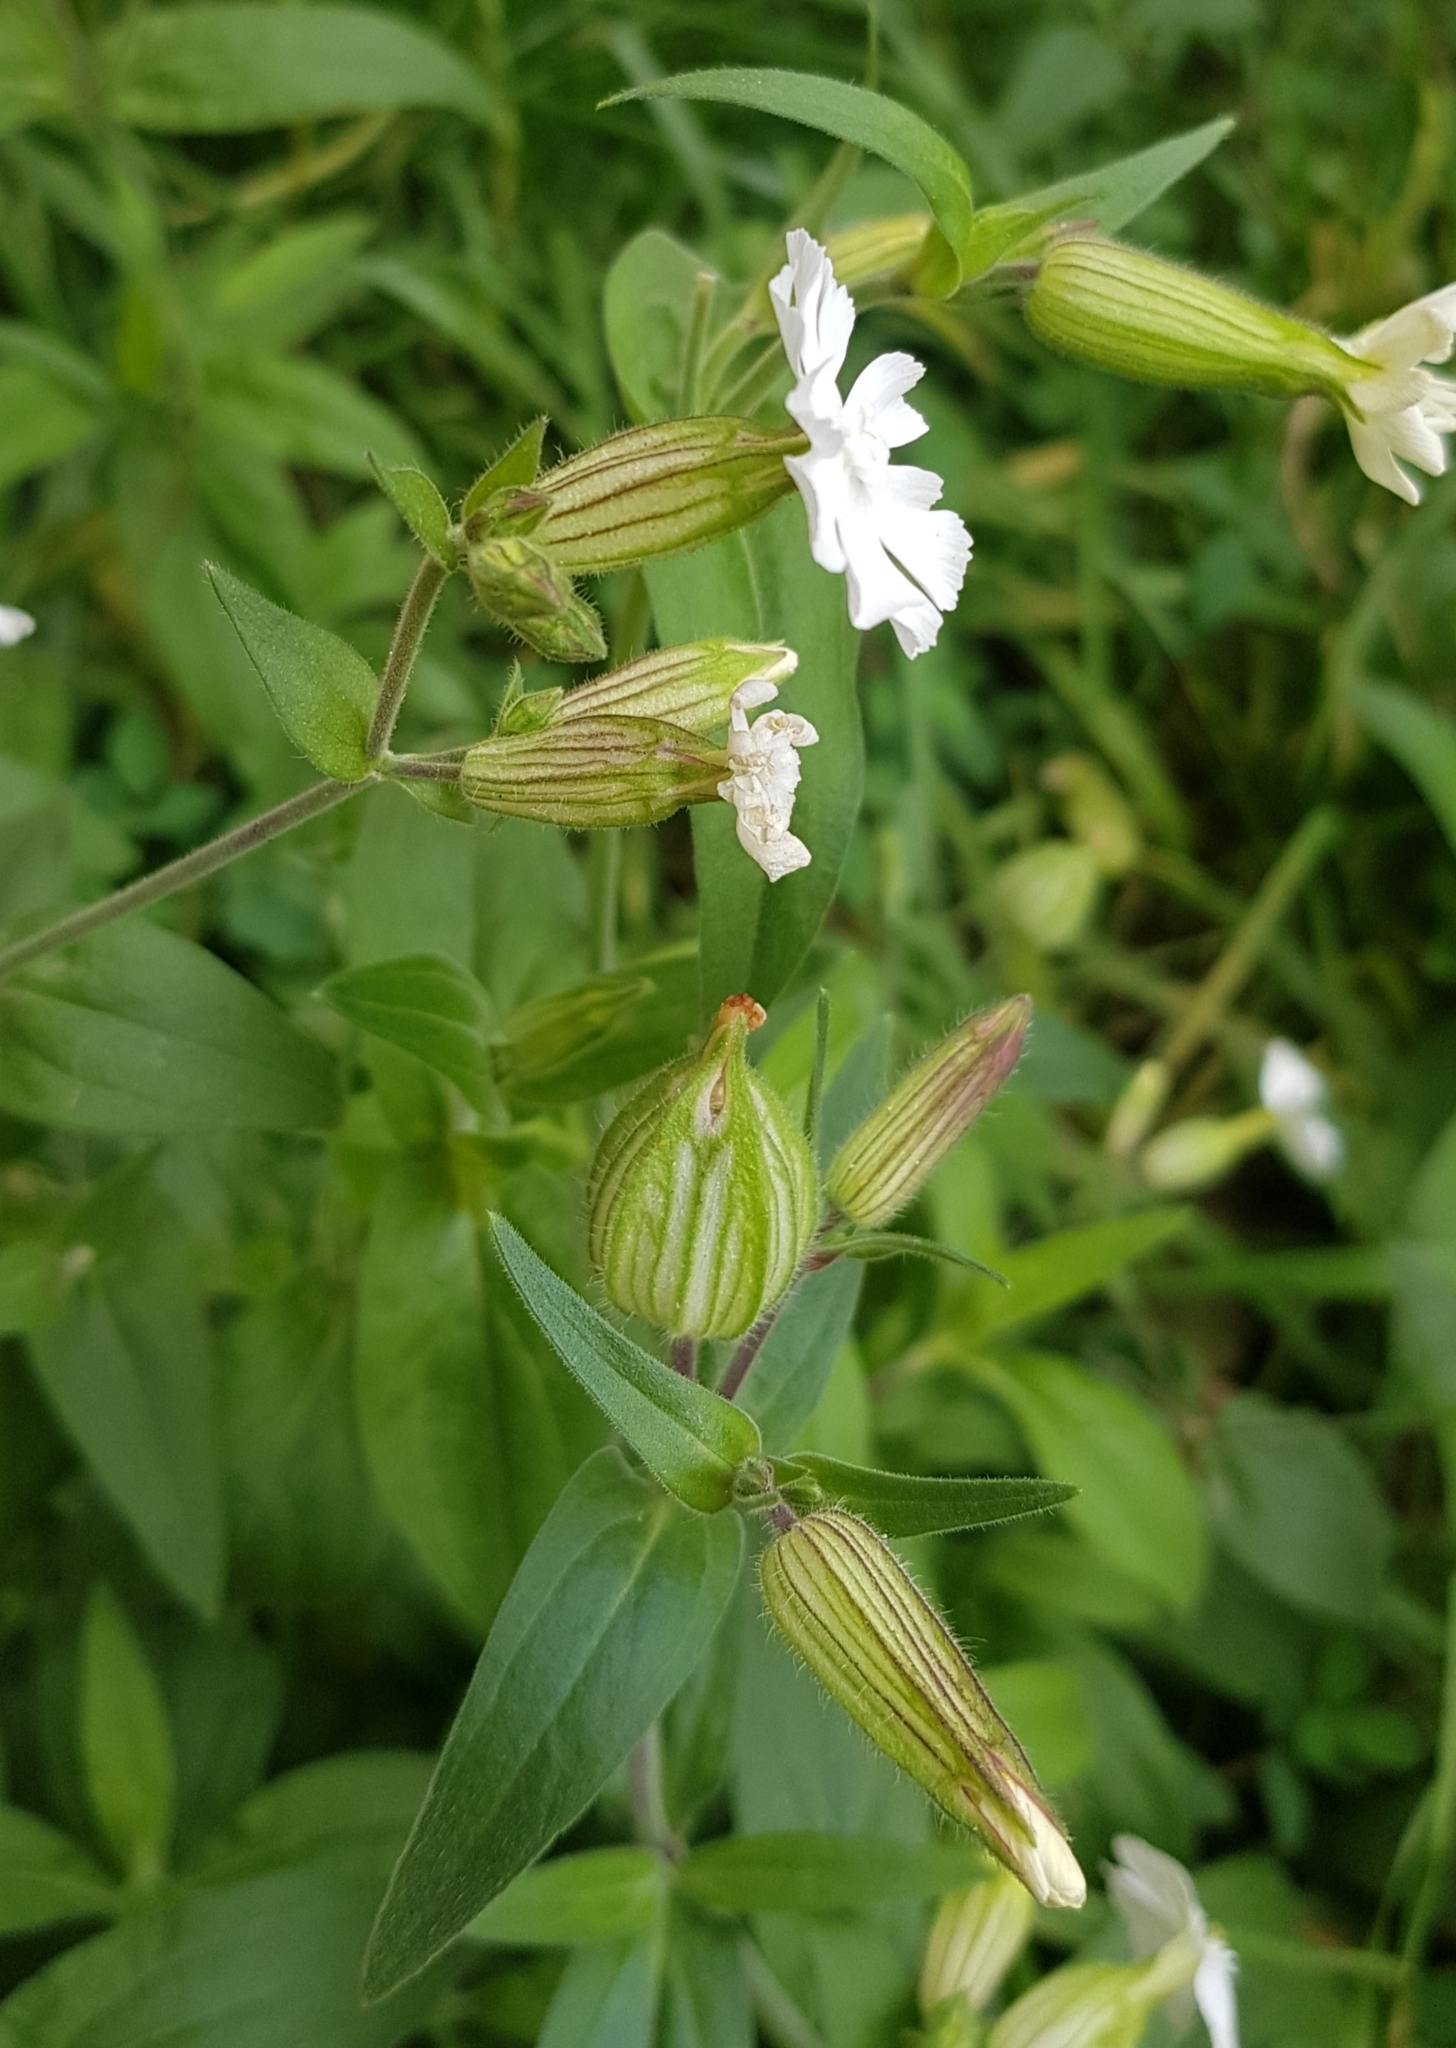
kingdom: Plantae
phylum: Tracheophyta
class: Magnoliopsida
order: Caryophyllales
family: Caryophyllaceae
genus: Silene
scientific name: Silene latifolia
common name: White campion
